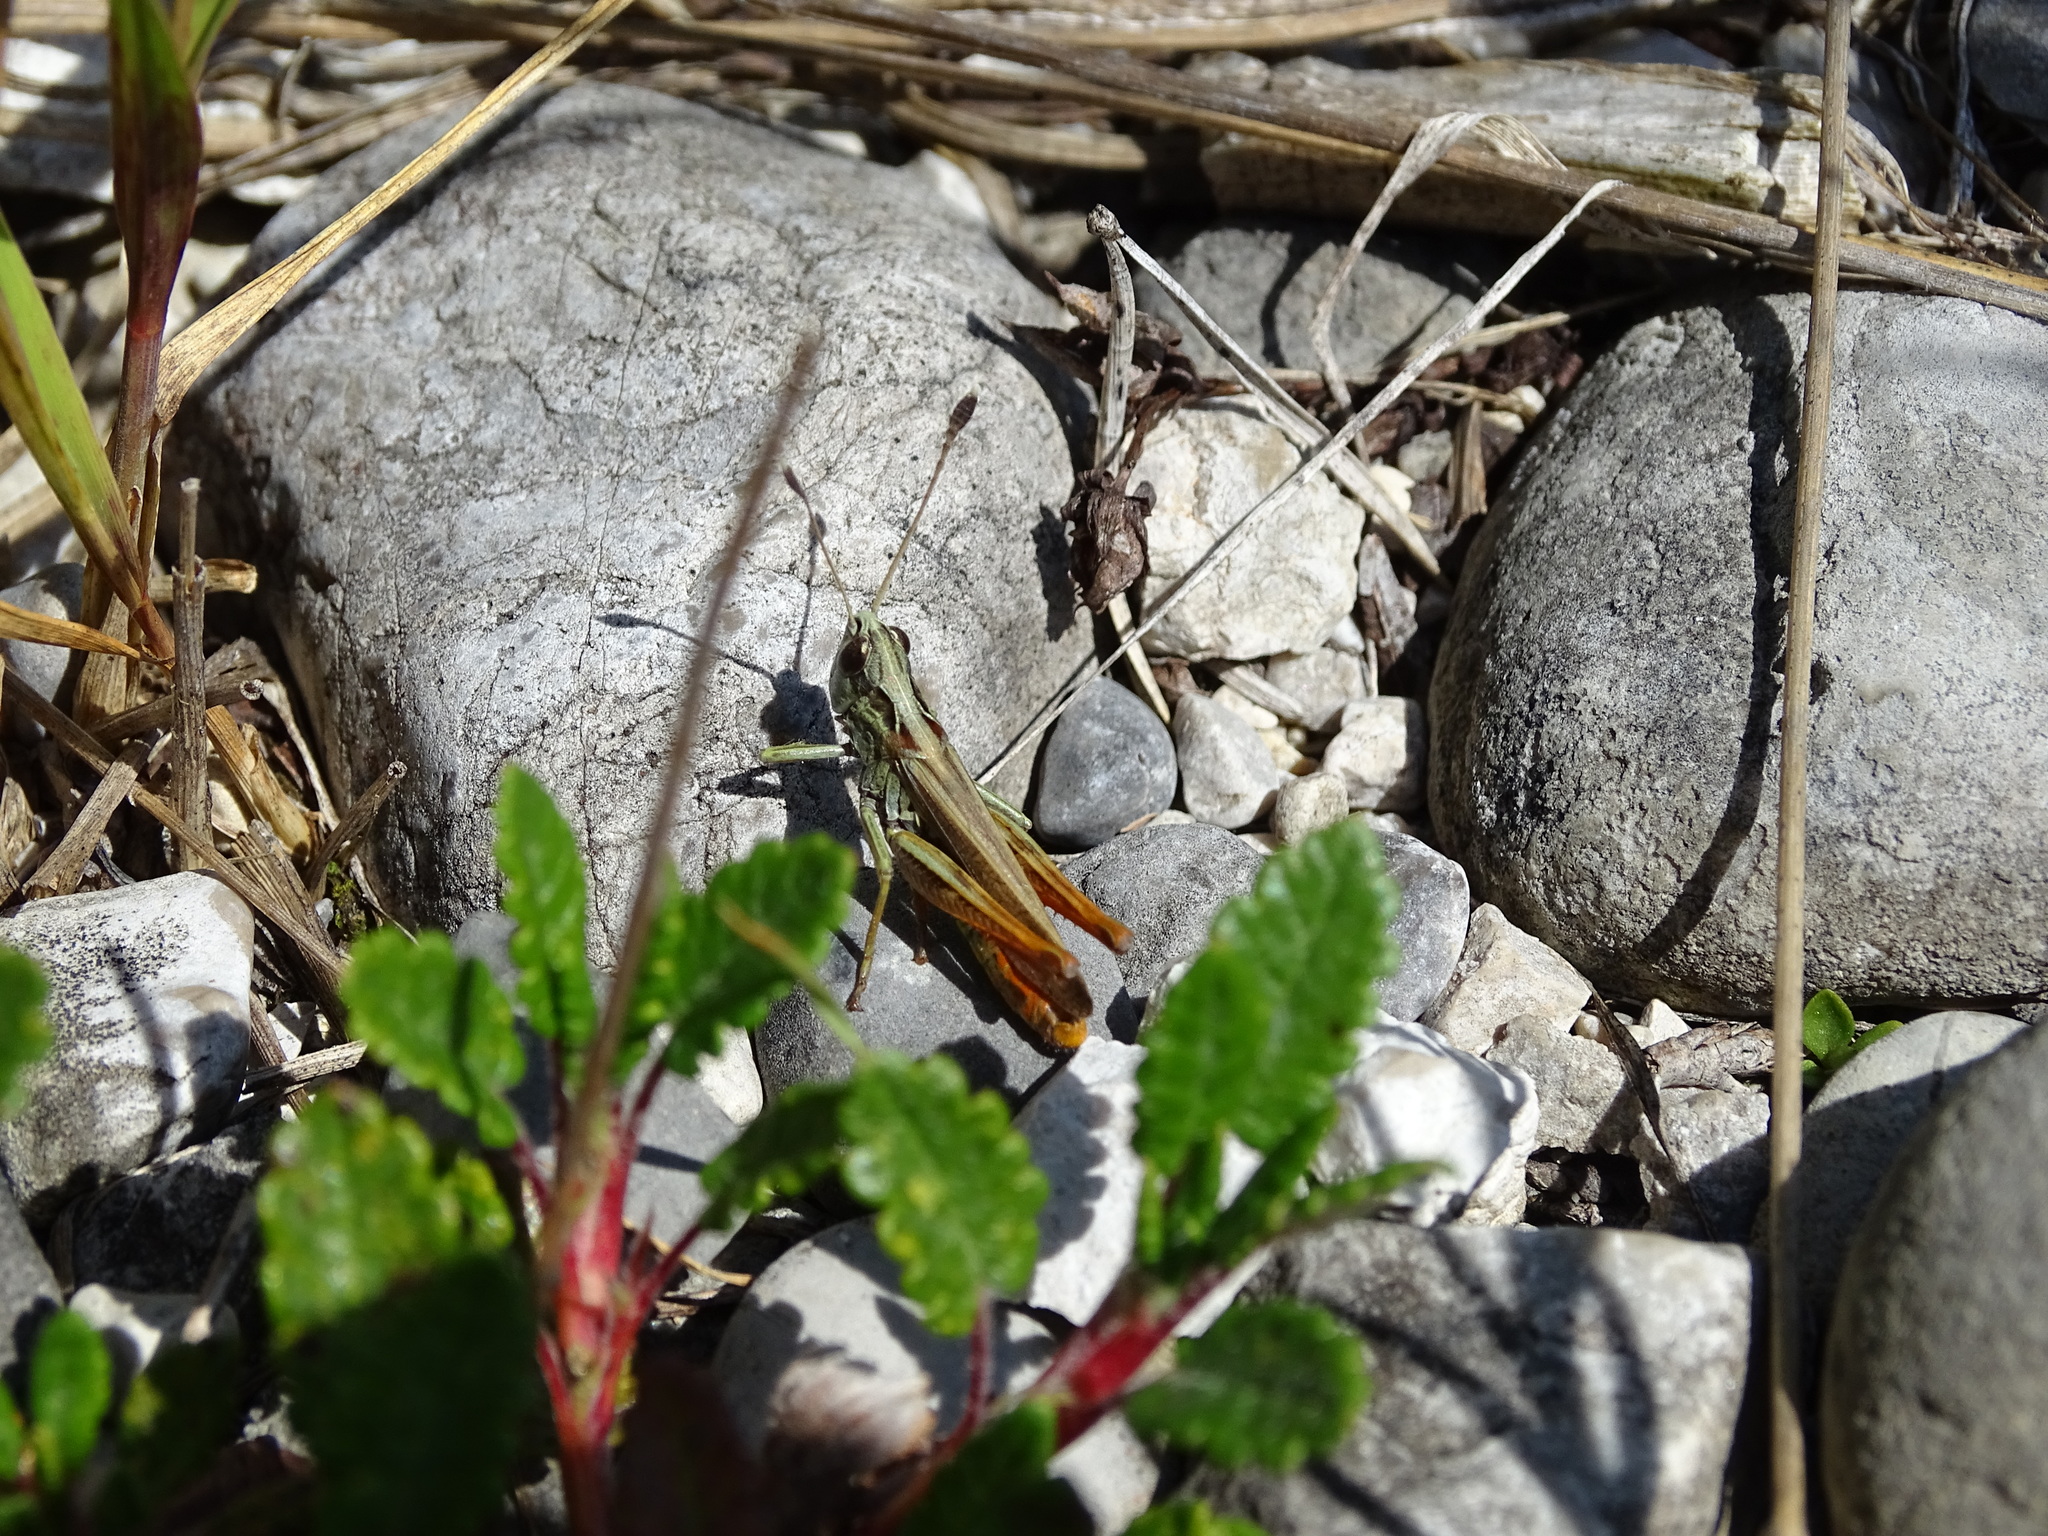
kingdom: Animalia
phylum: Arthropoda
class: Insecta
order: Orthoptera
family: Acrididae
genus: Gomphocerippus
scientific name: Gomphocerippus rufus
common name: Rufous grasshopper
